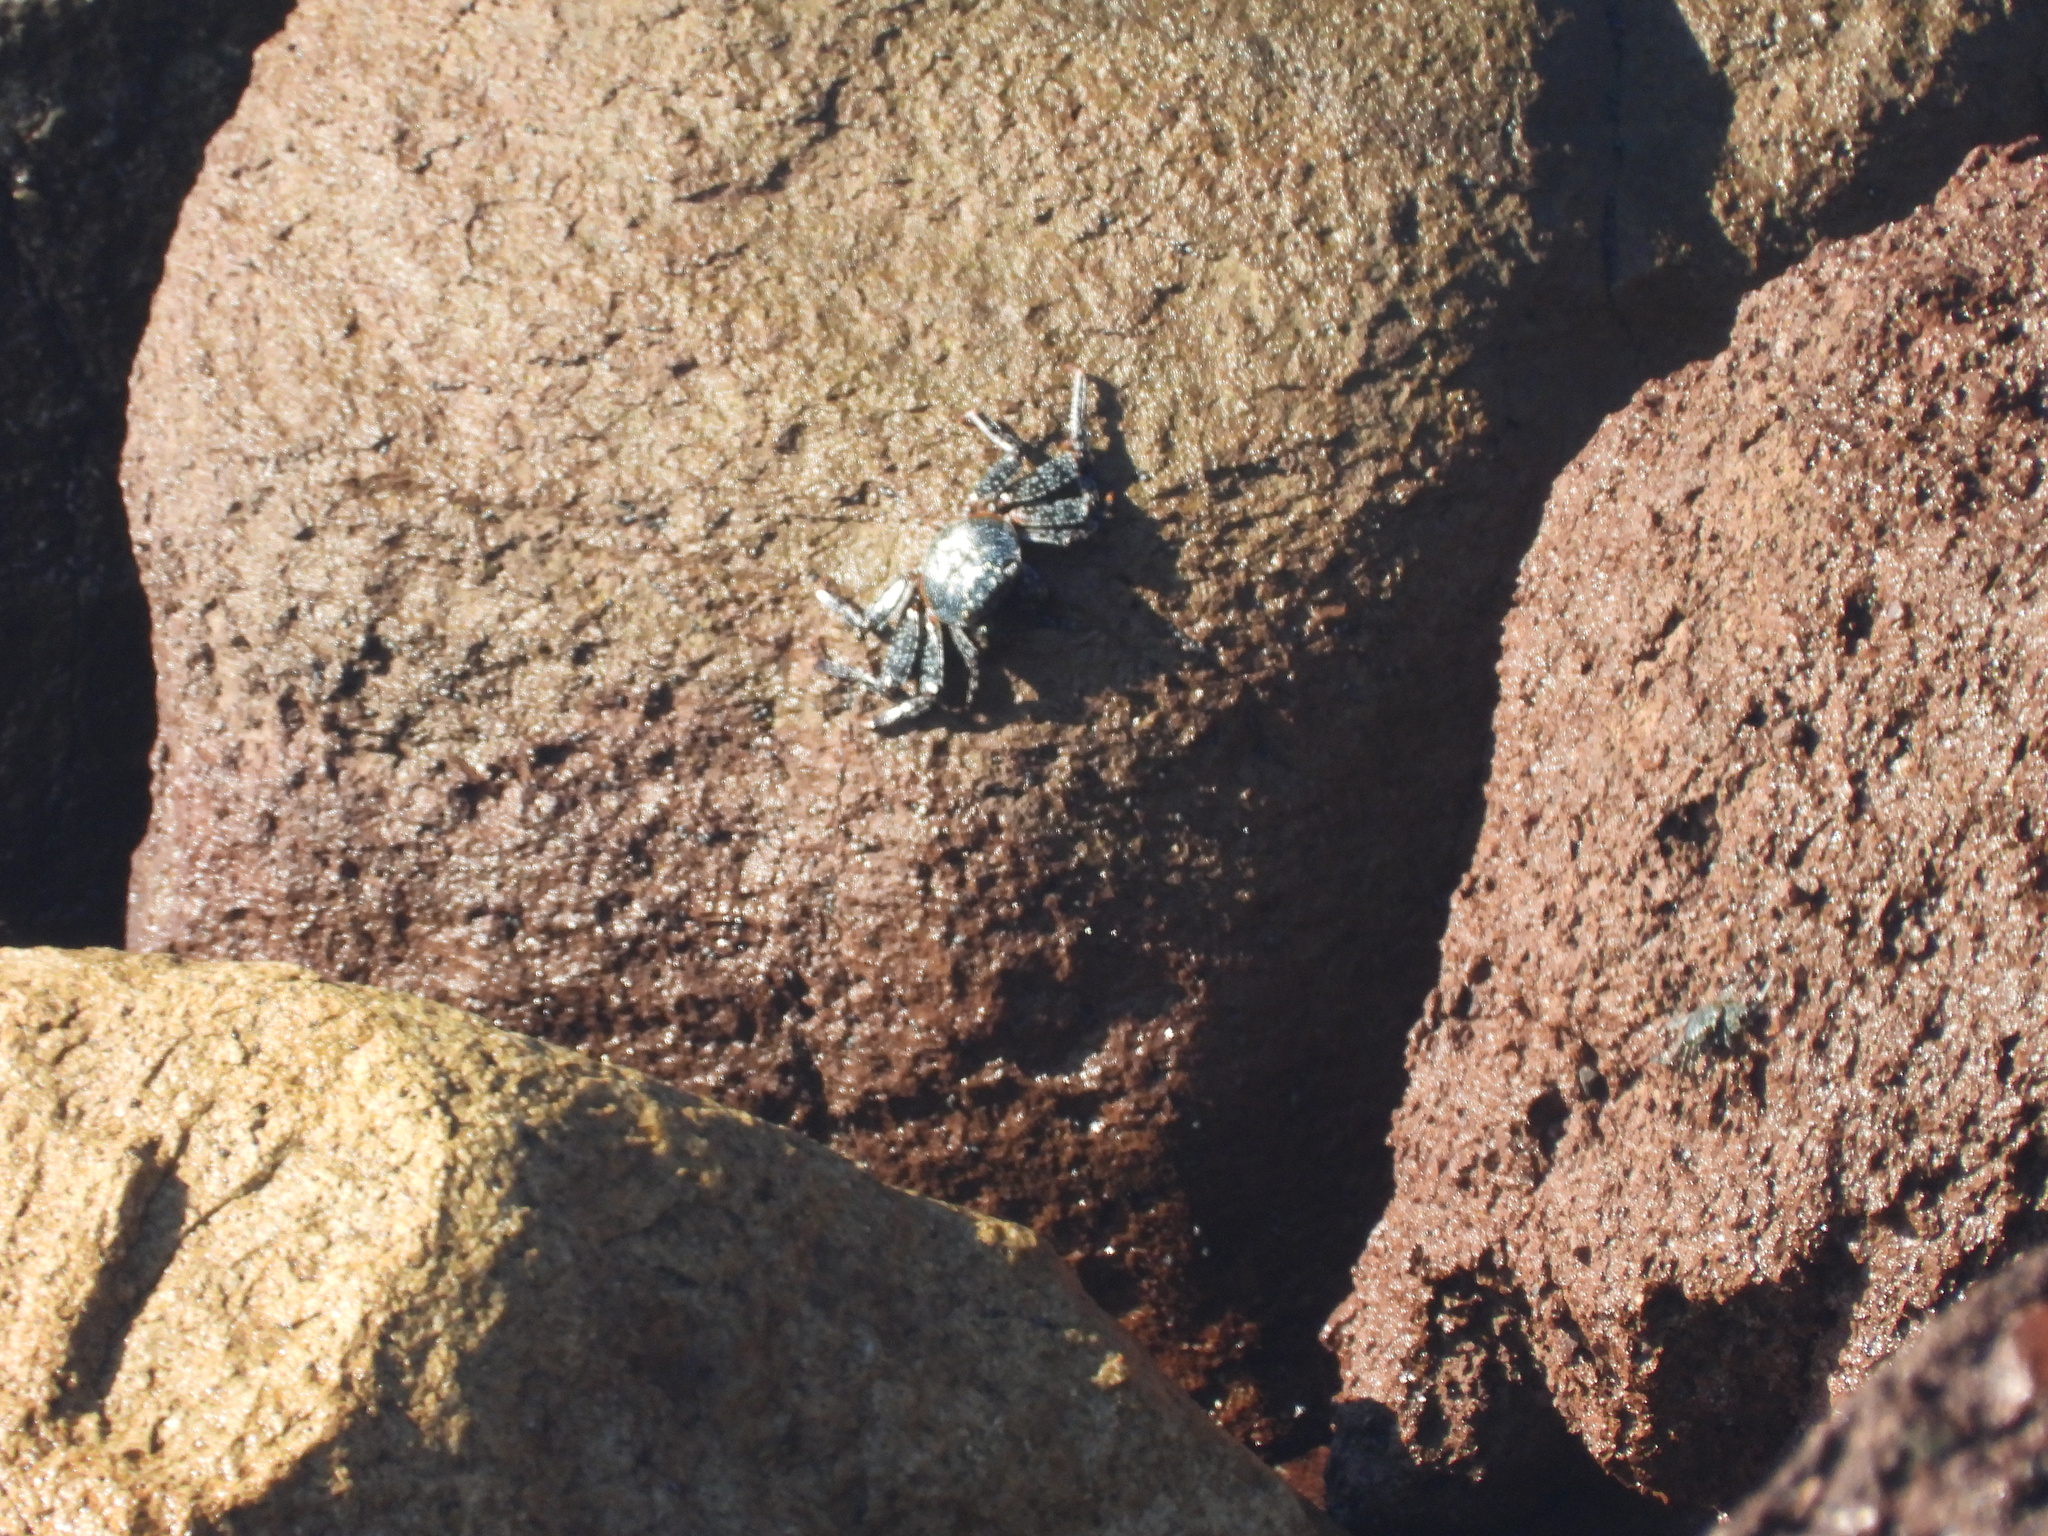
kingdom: Animalia
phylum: Arthropoda
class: Malacostraca
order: Decapoda
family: Grapsidae
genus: Grapsus
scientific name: Grapsus grapsus
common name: Sally lightfoot
